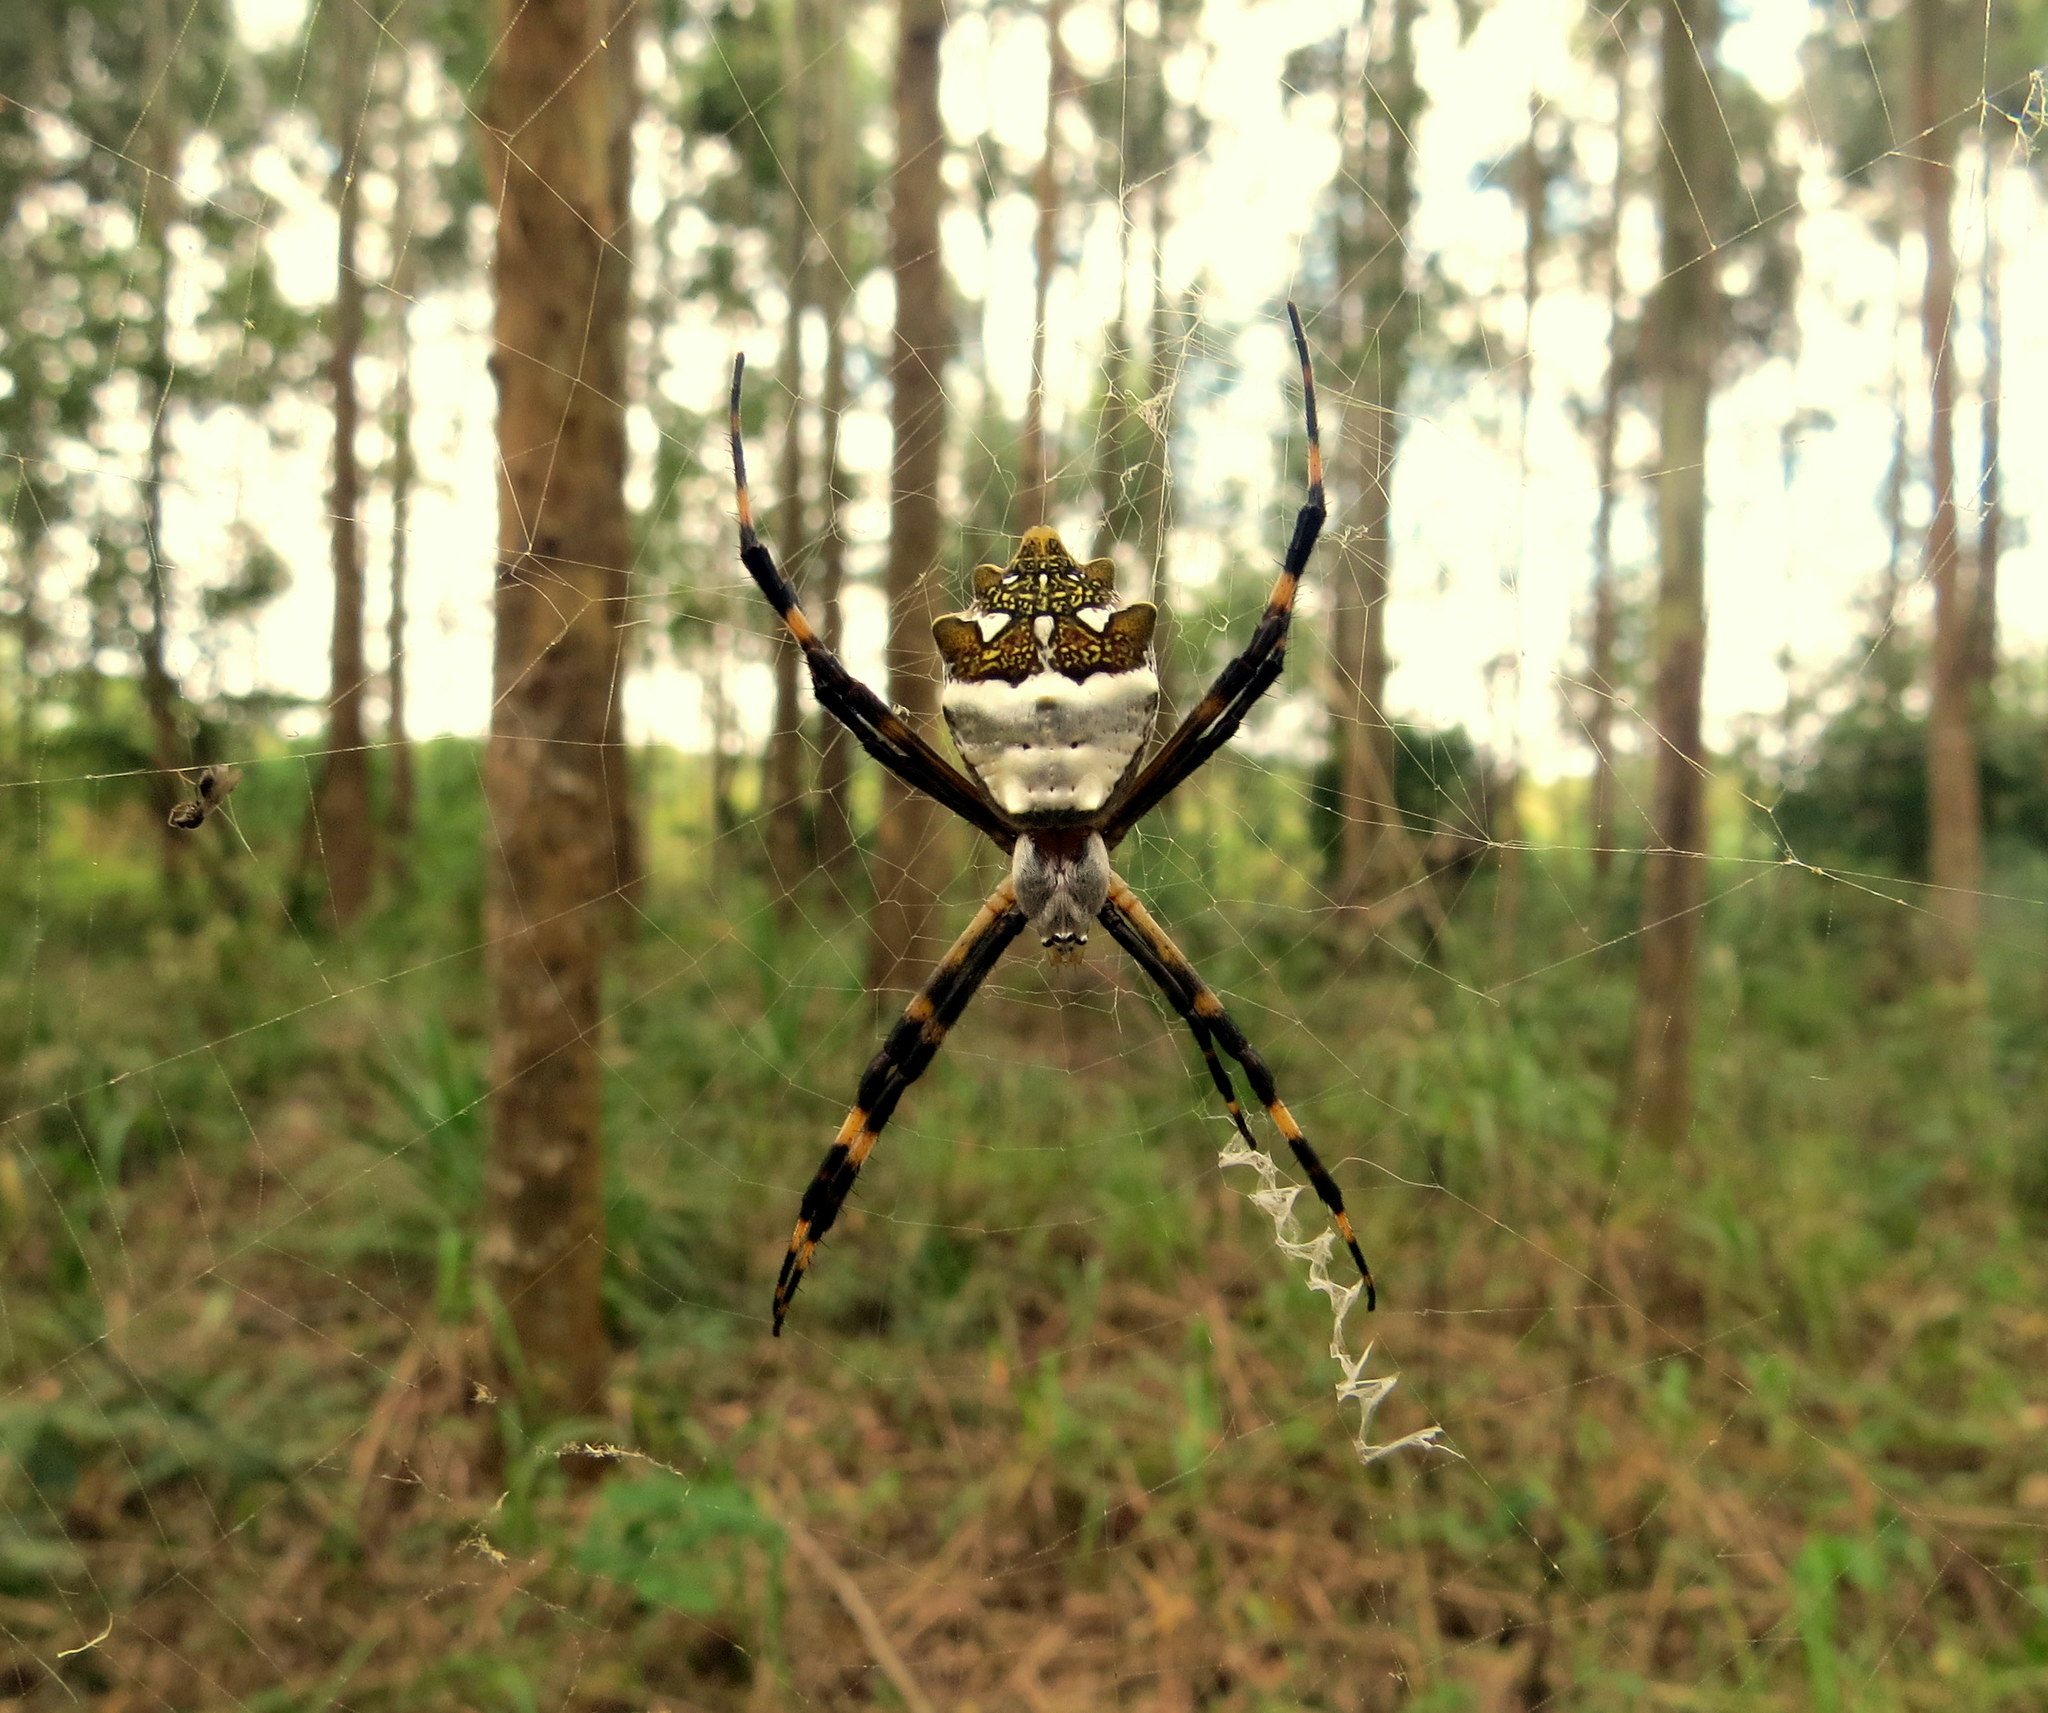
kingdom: Animalia
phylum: Arthropoda
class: Arachnida
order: Araneae
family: Araneidae
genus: Argiope
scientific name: Argiope argentata
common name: Orb weavers
